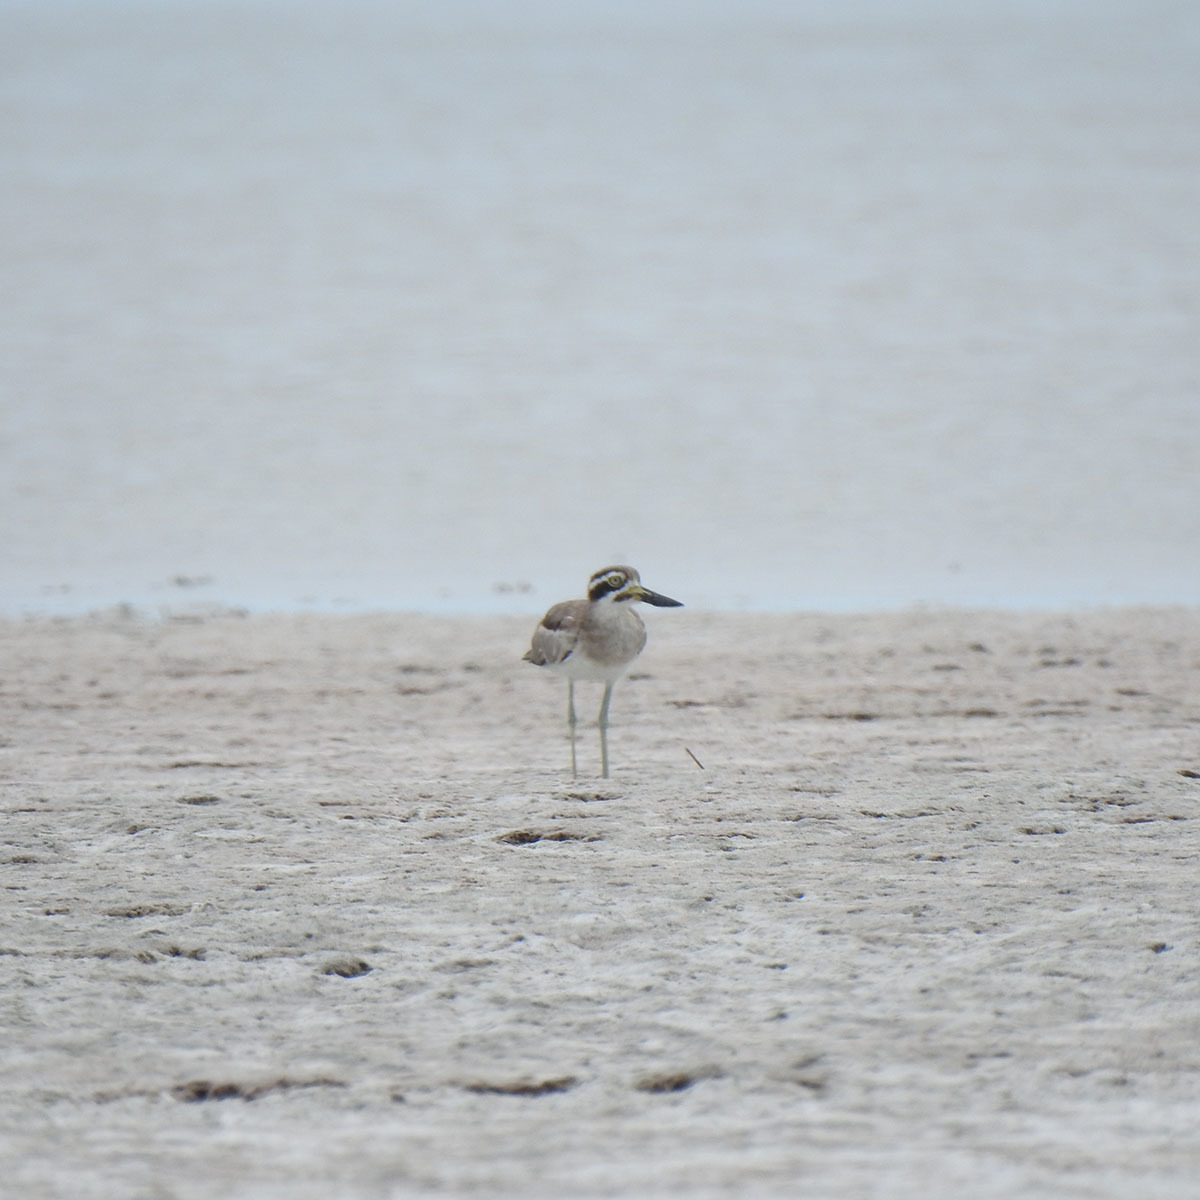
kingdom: Animalia
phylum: Chordata
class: Aves
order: Charadriiformes
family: Burhinidae
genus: Esacus
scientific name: Esacus recurvirostris
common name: Great stone-curlew
